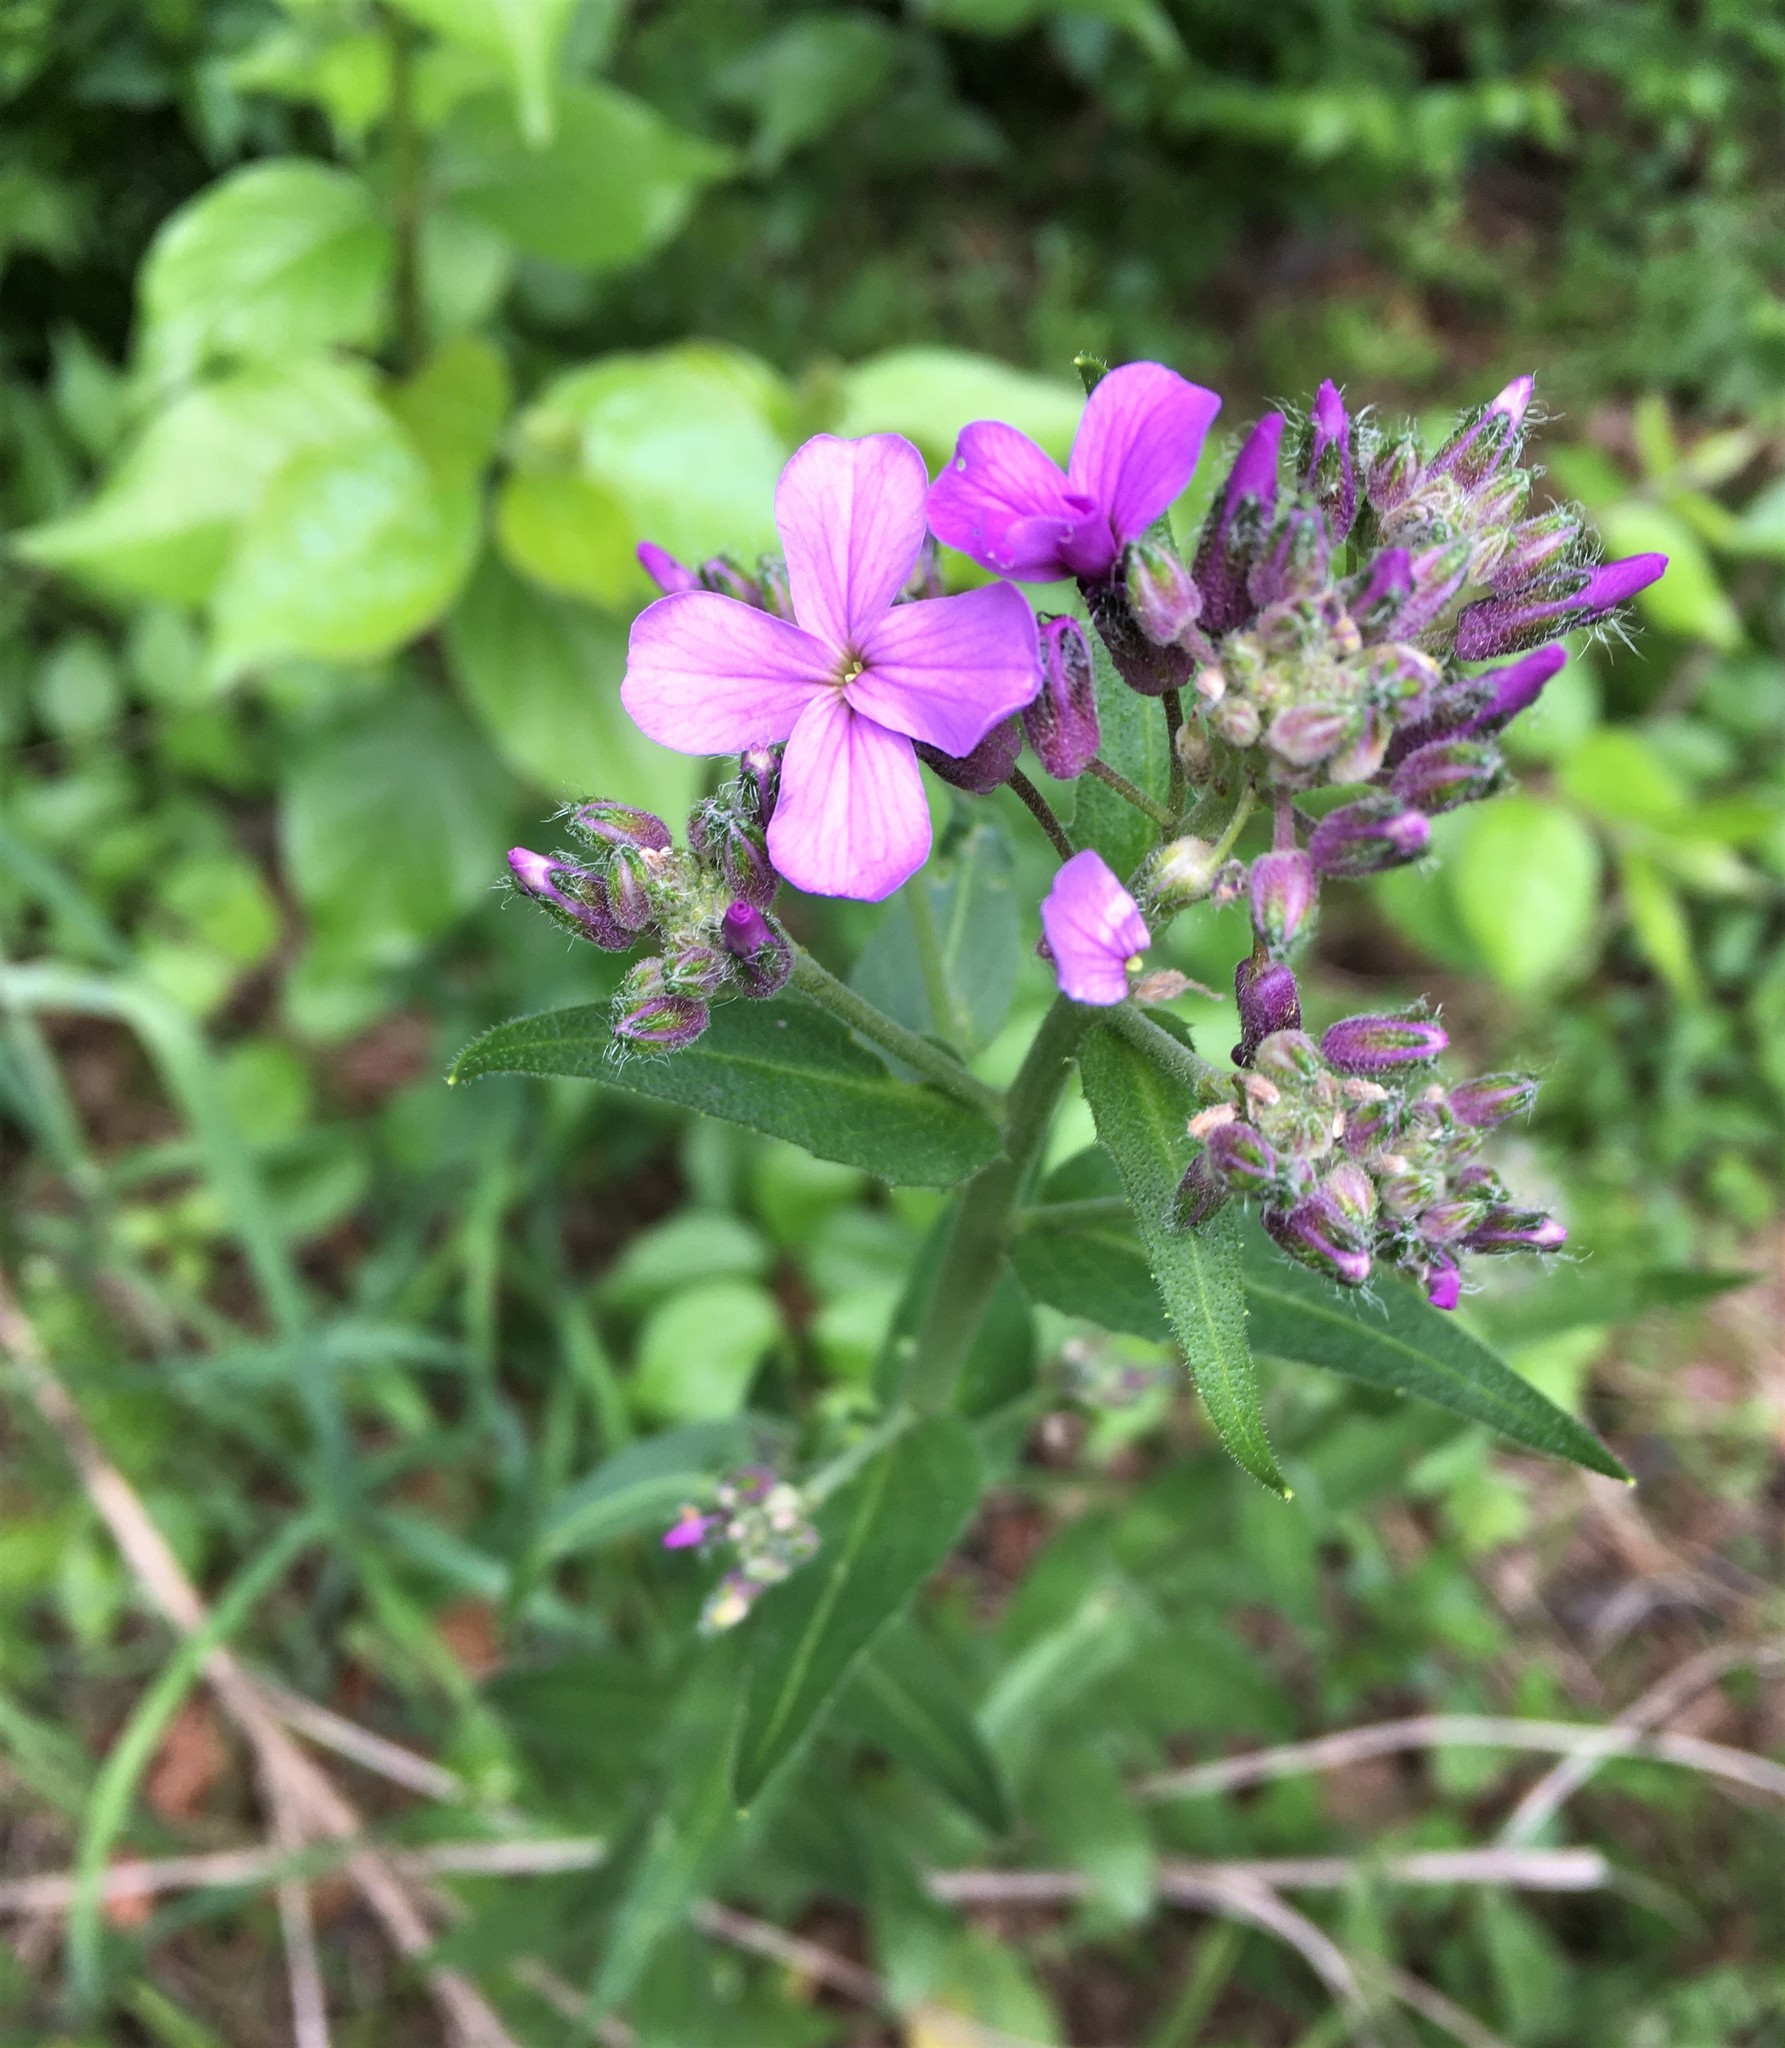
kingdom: Plantae
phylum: Tracheophyta
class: Magnoliopsida
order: Brassicales
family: Brassicaceae
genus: Hesperis
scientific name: Hesperis matronalis
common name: Dame's-violet
